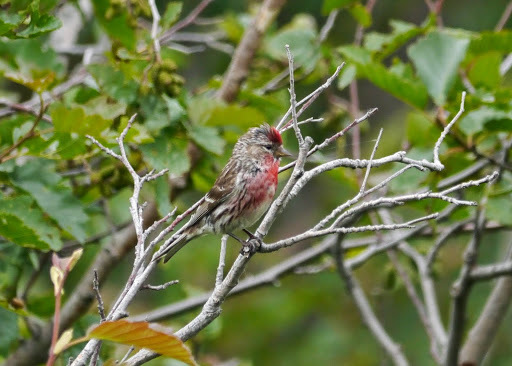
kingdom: Animalia
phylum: Chordata
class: Aves
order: Passeriformes
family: Fringillidae
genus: Acanthis
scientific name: Acanthis flammea
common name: Common redpoll
